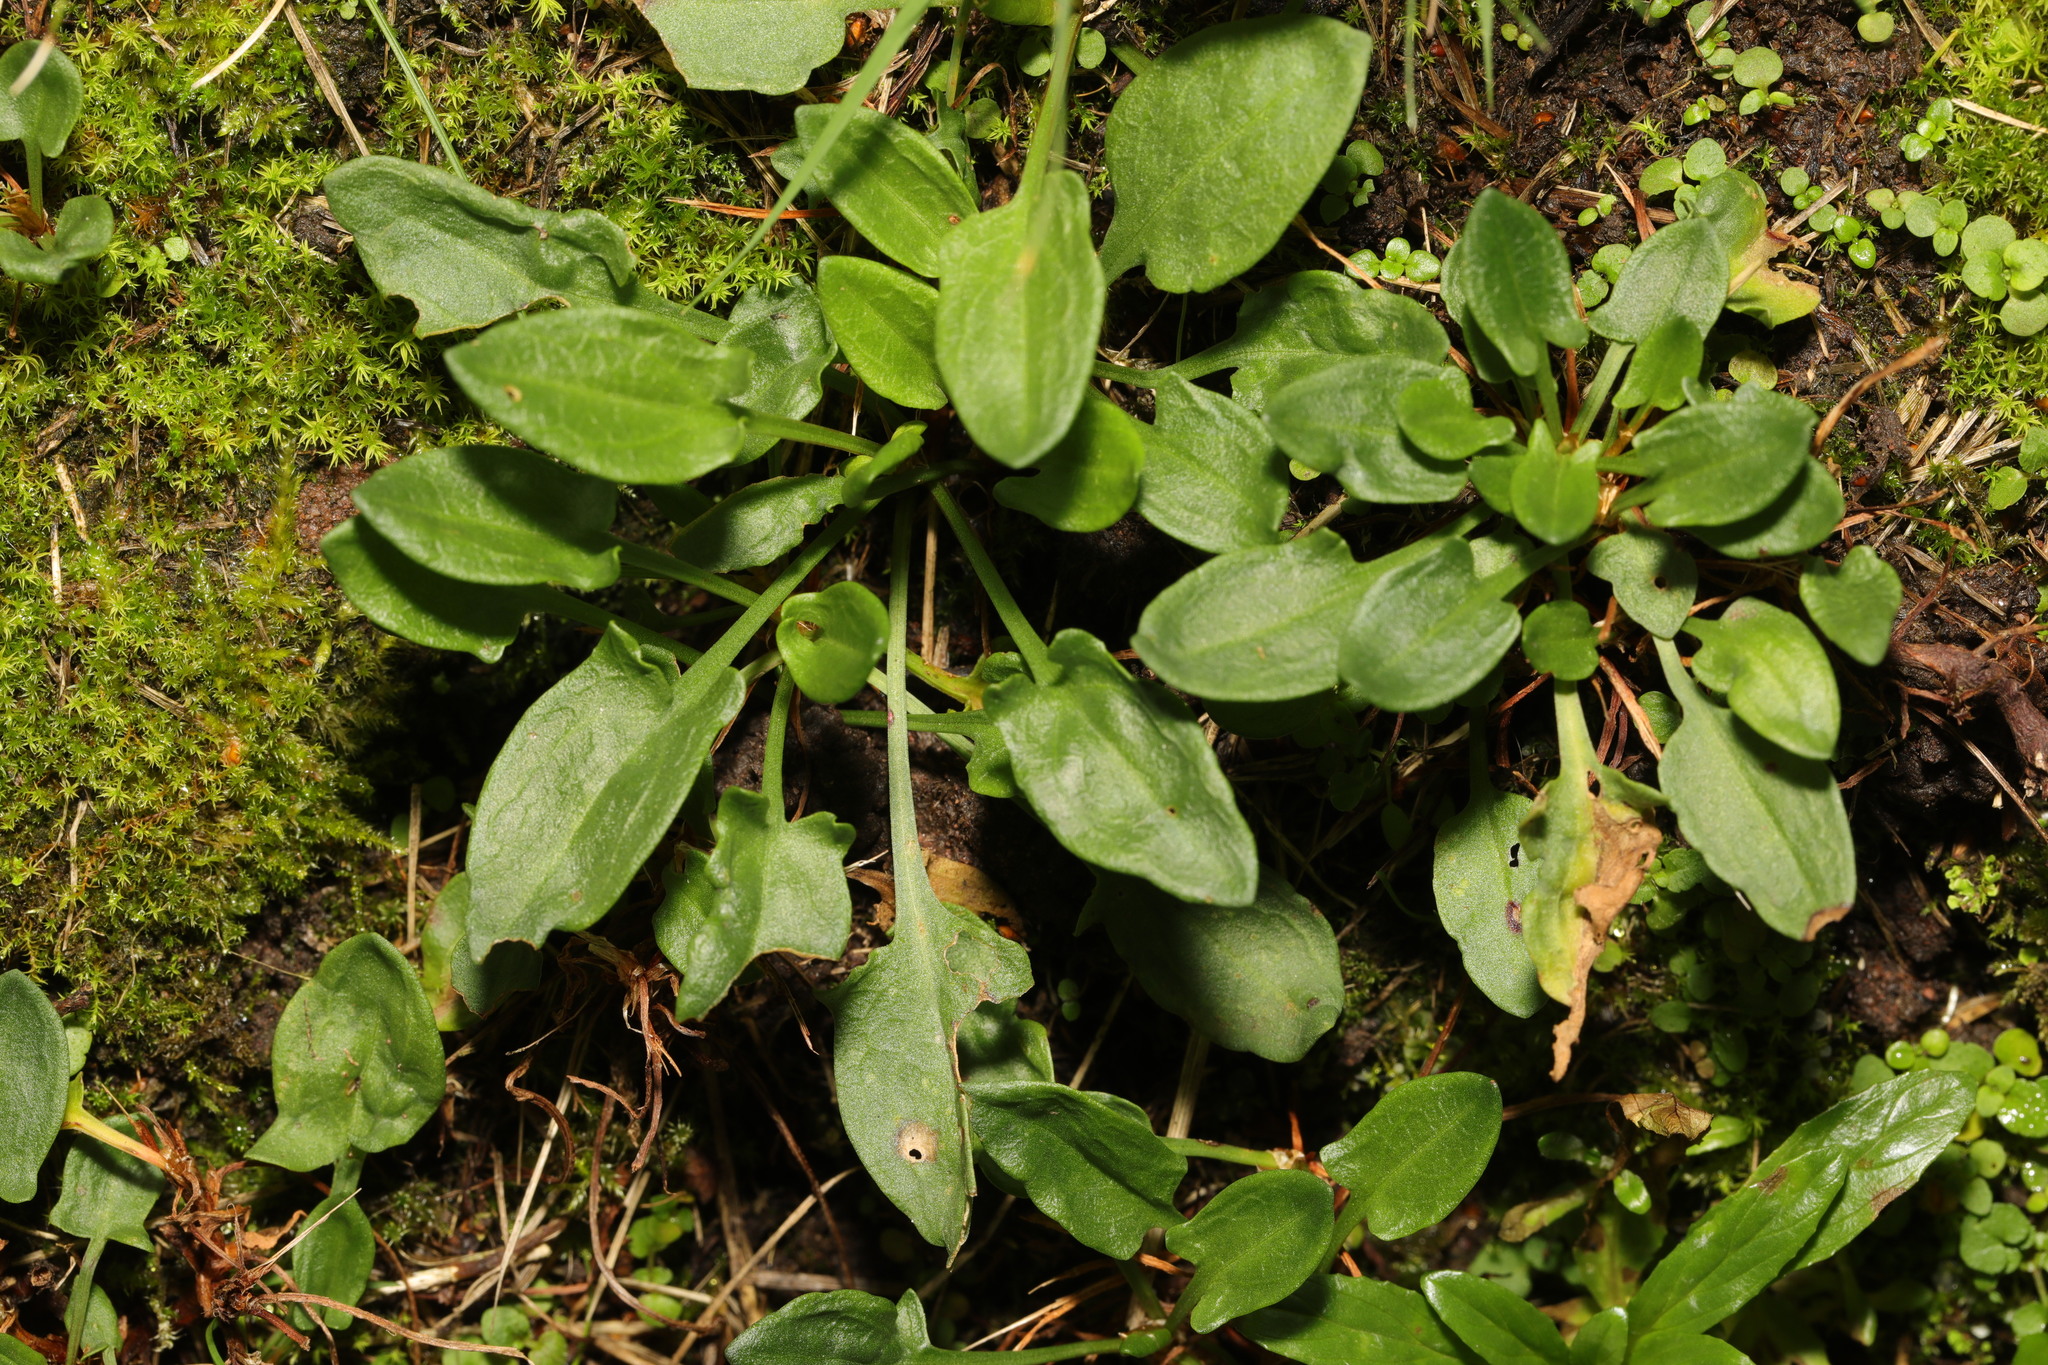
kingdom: Plantae
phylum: Tracheophyta
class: Magnoliopsida
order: Caryophyllales
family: Polygonaceae
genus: Rumex
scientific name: Rumex acetosella
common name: Common sheep sorrel
